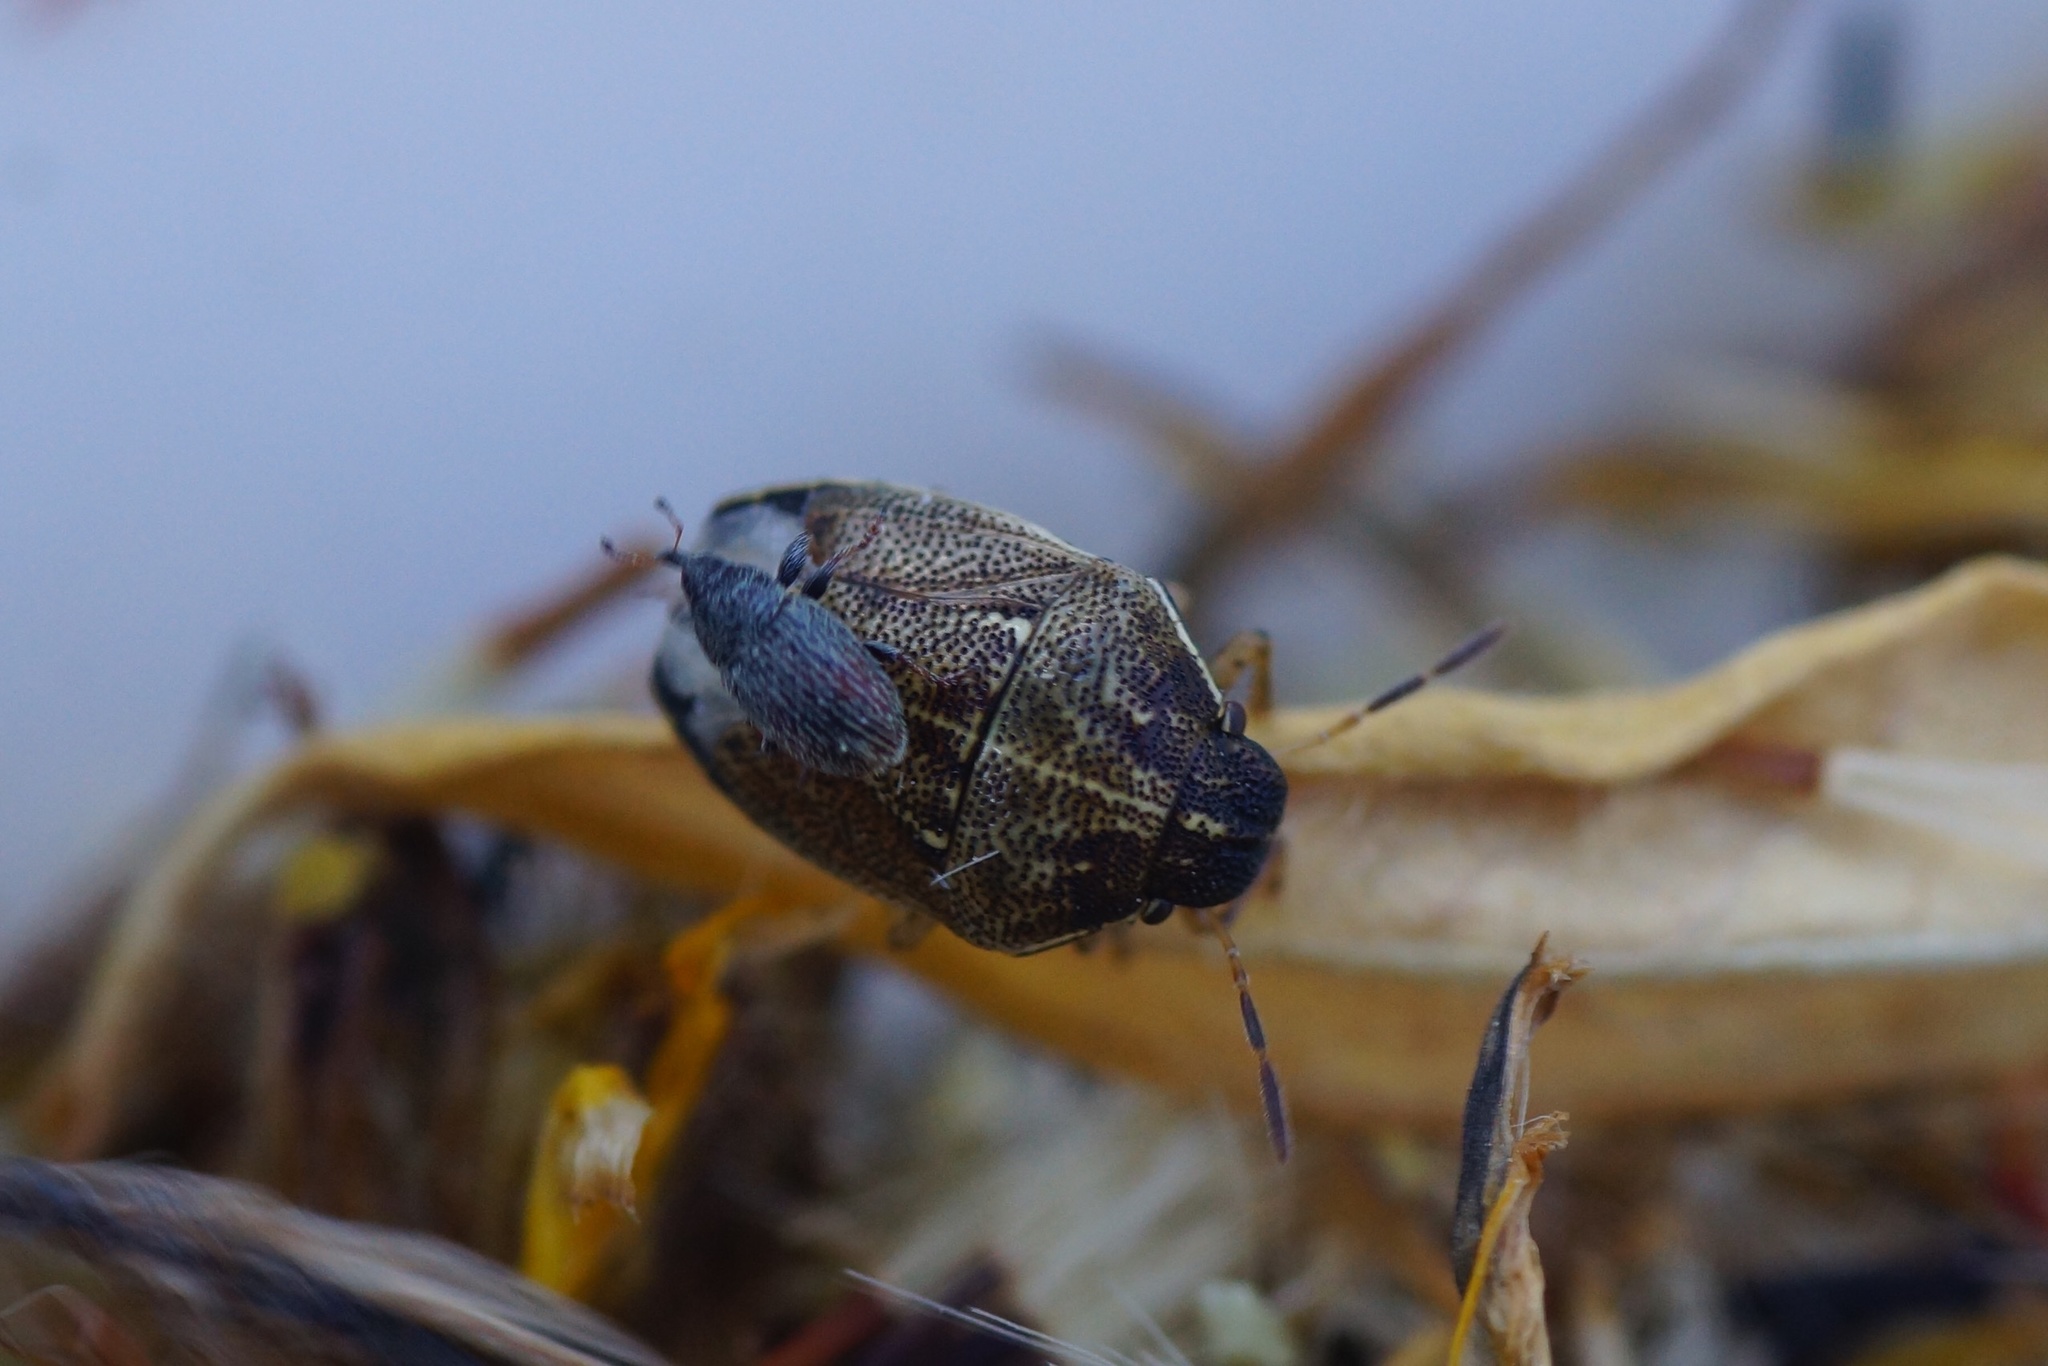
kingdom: Animalia
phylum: Arthropoda
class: Insecta
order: Hemiptera
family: Pentatomidae
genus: Neottiglossa
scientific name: Neottiglossa pusilla
